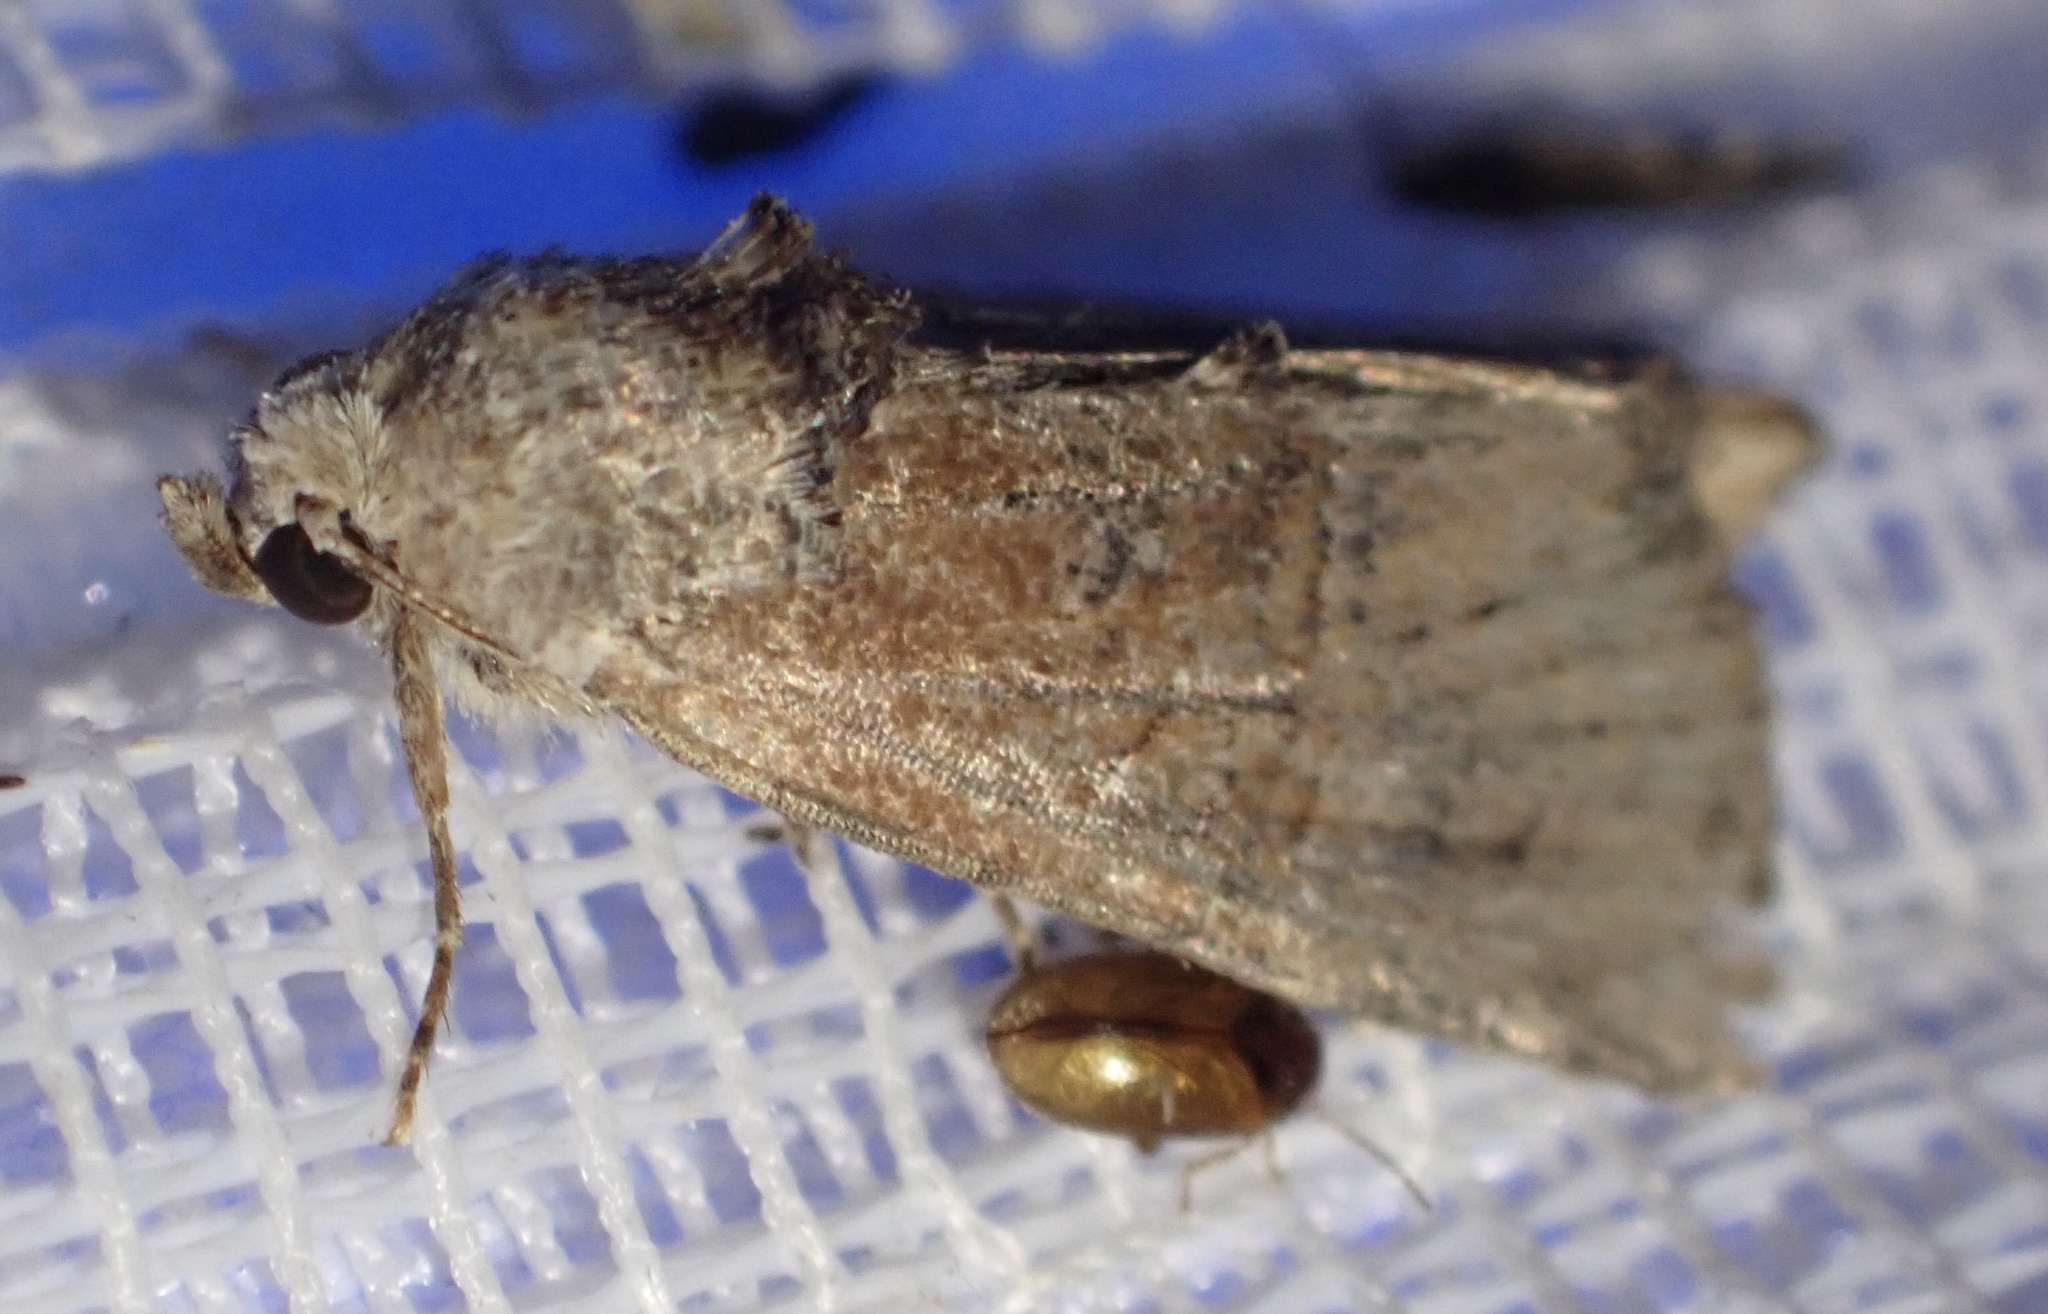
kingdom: Animalia
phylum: Arthropoda
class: Insecta
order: Lepidoptera
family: Noctuidae
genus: Mesoligia
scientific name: Mesoligia furuncula
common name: Cloaked minor
